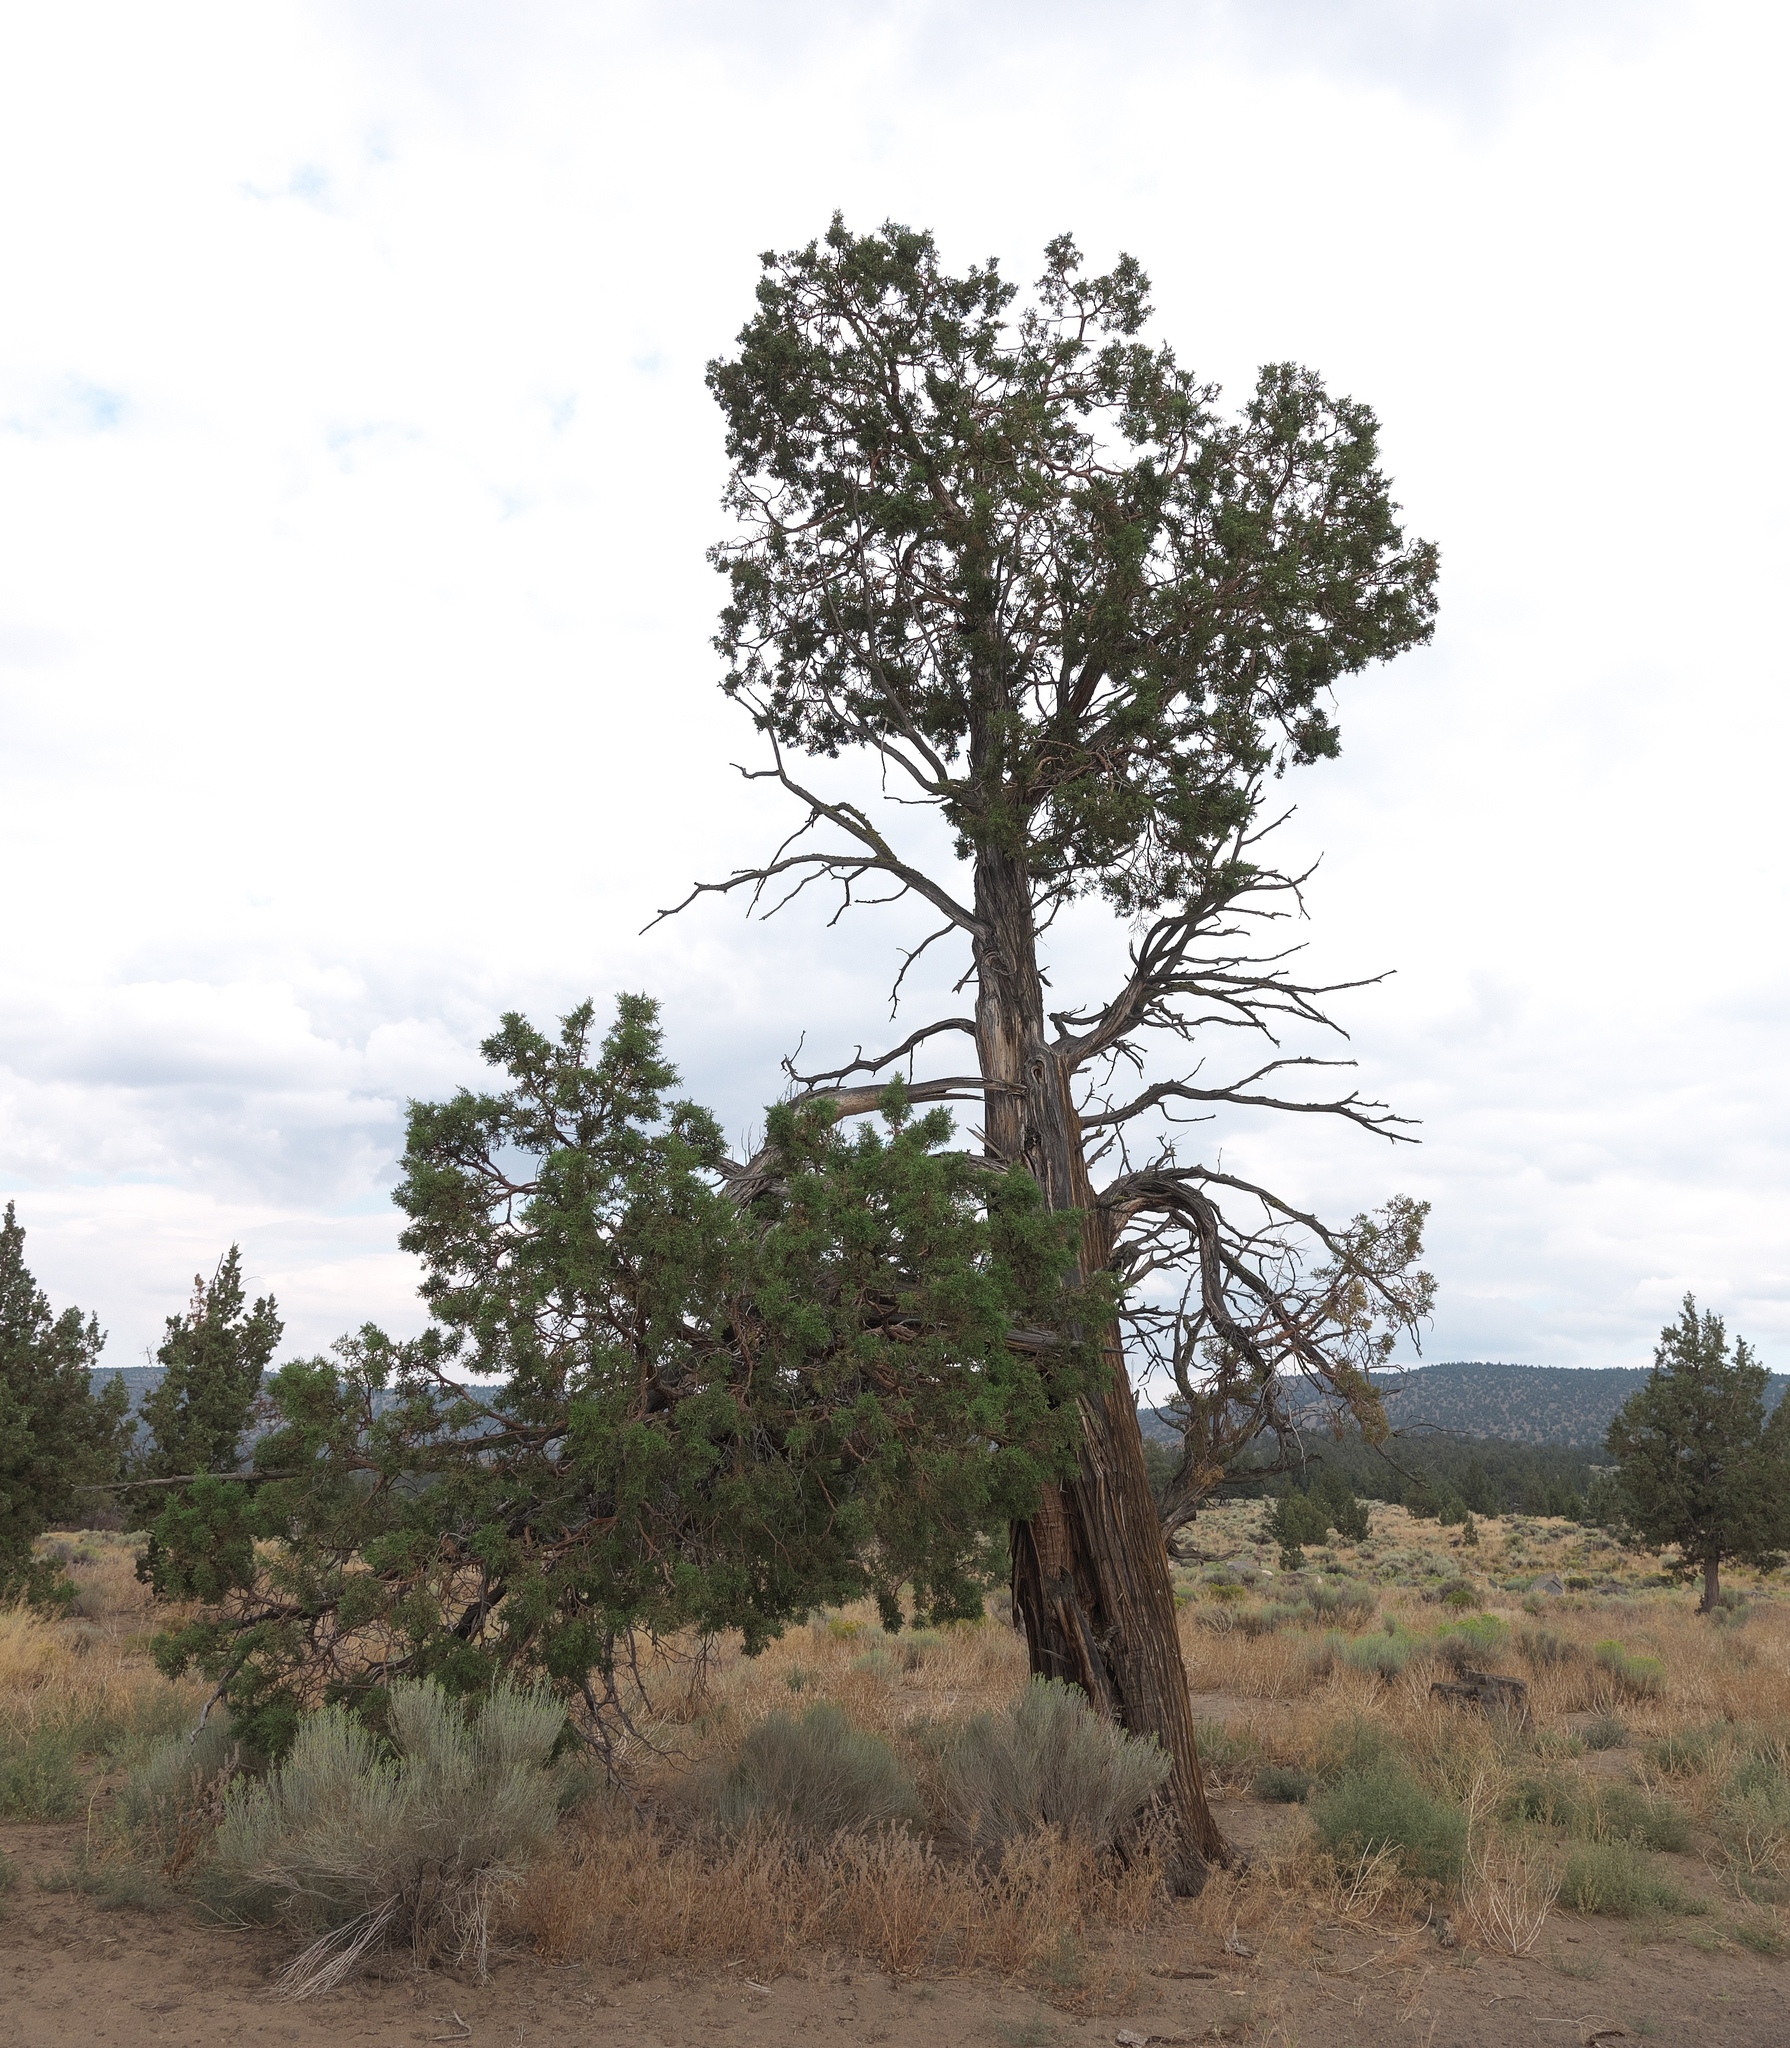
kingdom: Plantae
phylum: Tracheophyta
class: Pinopsida
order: Pinales
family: Cupressaceae
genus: Juniperus
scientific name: Juniperus occidentalis
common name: Western juniper
